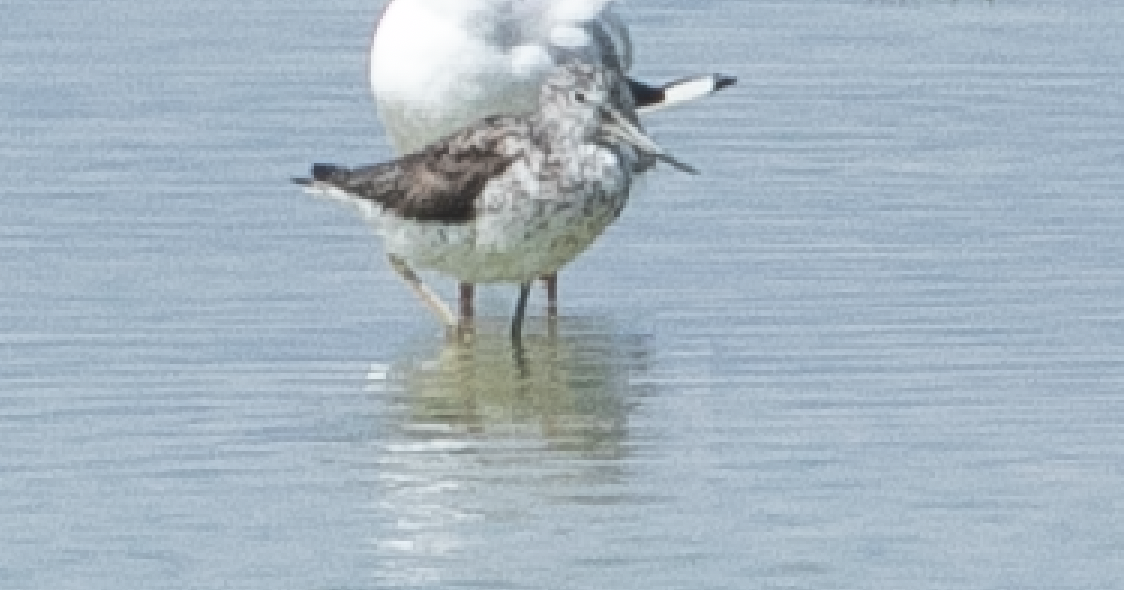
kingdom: Animalia
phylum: Chordata
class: Aves
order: Charadriiformes
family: Scolopacidae
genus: Tringa
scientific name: Tringa nebularia
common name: Common greenshank
